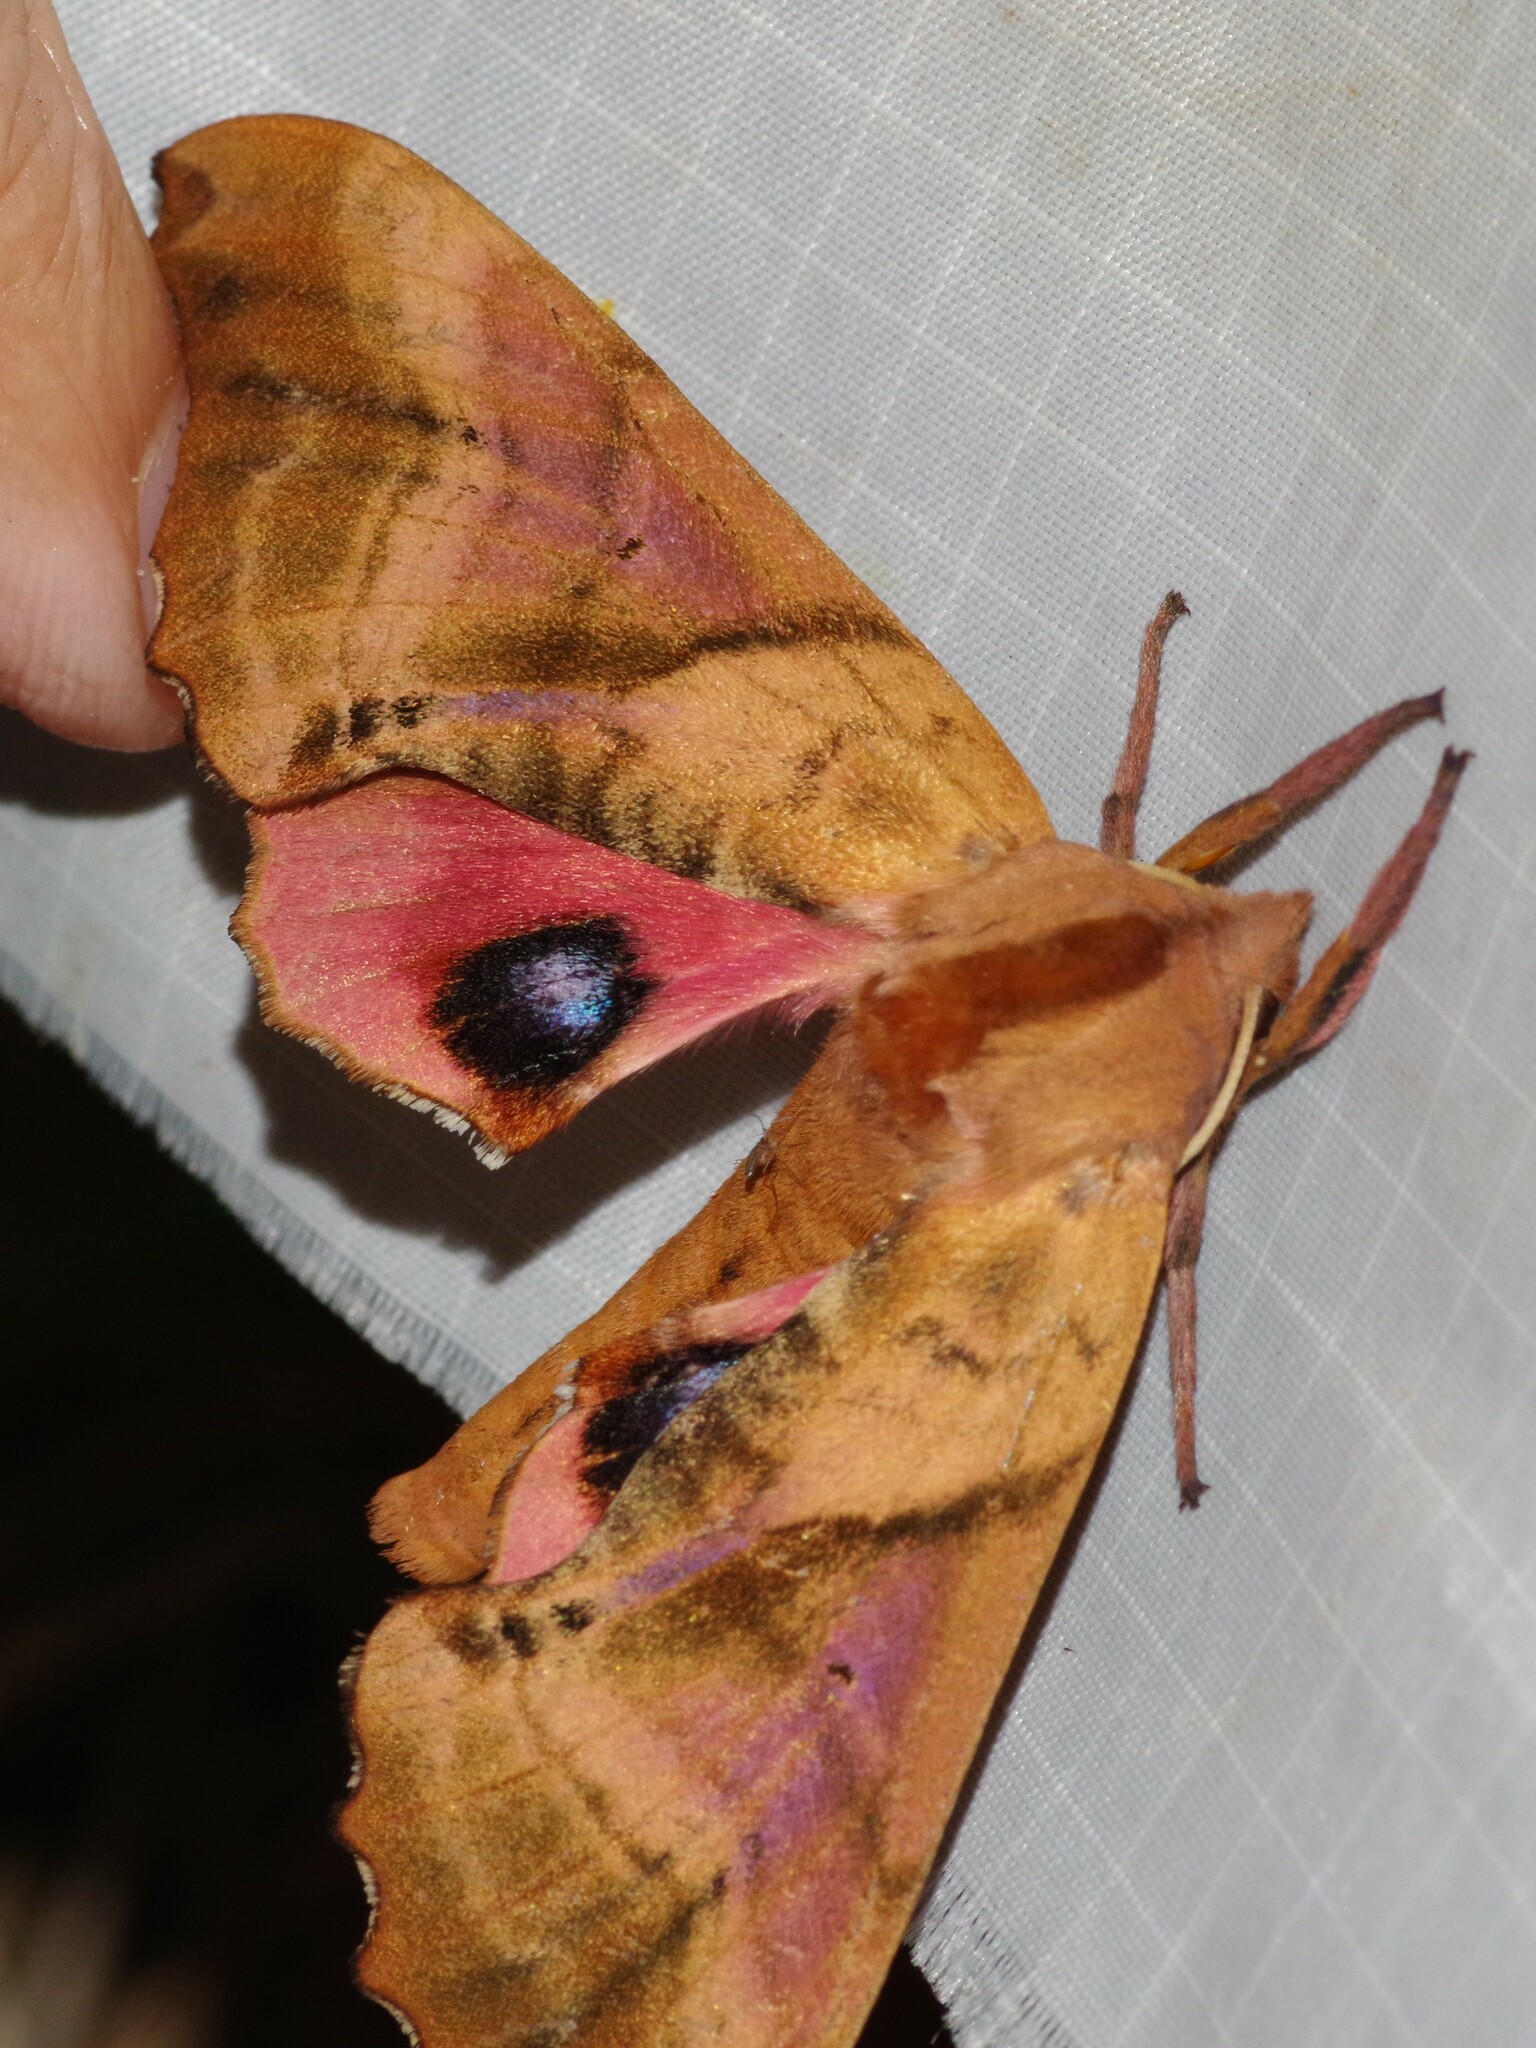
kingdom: Animalia
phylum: Arthropoda
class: Insecta
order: Lepidoptera
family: Sphingidae
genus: Paonias
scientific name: Paonias excaecata
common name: Blind-eyed sphinx
